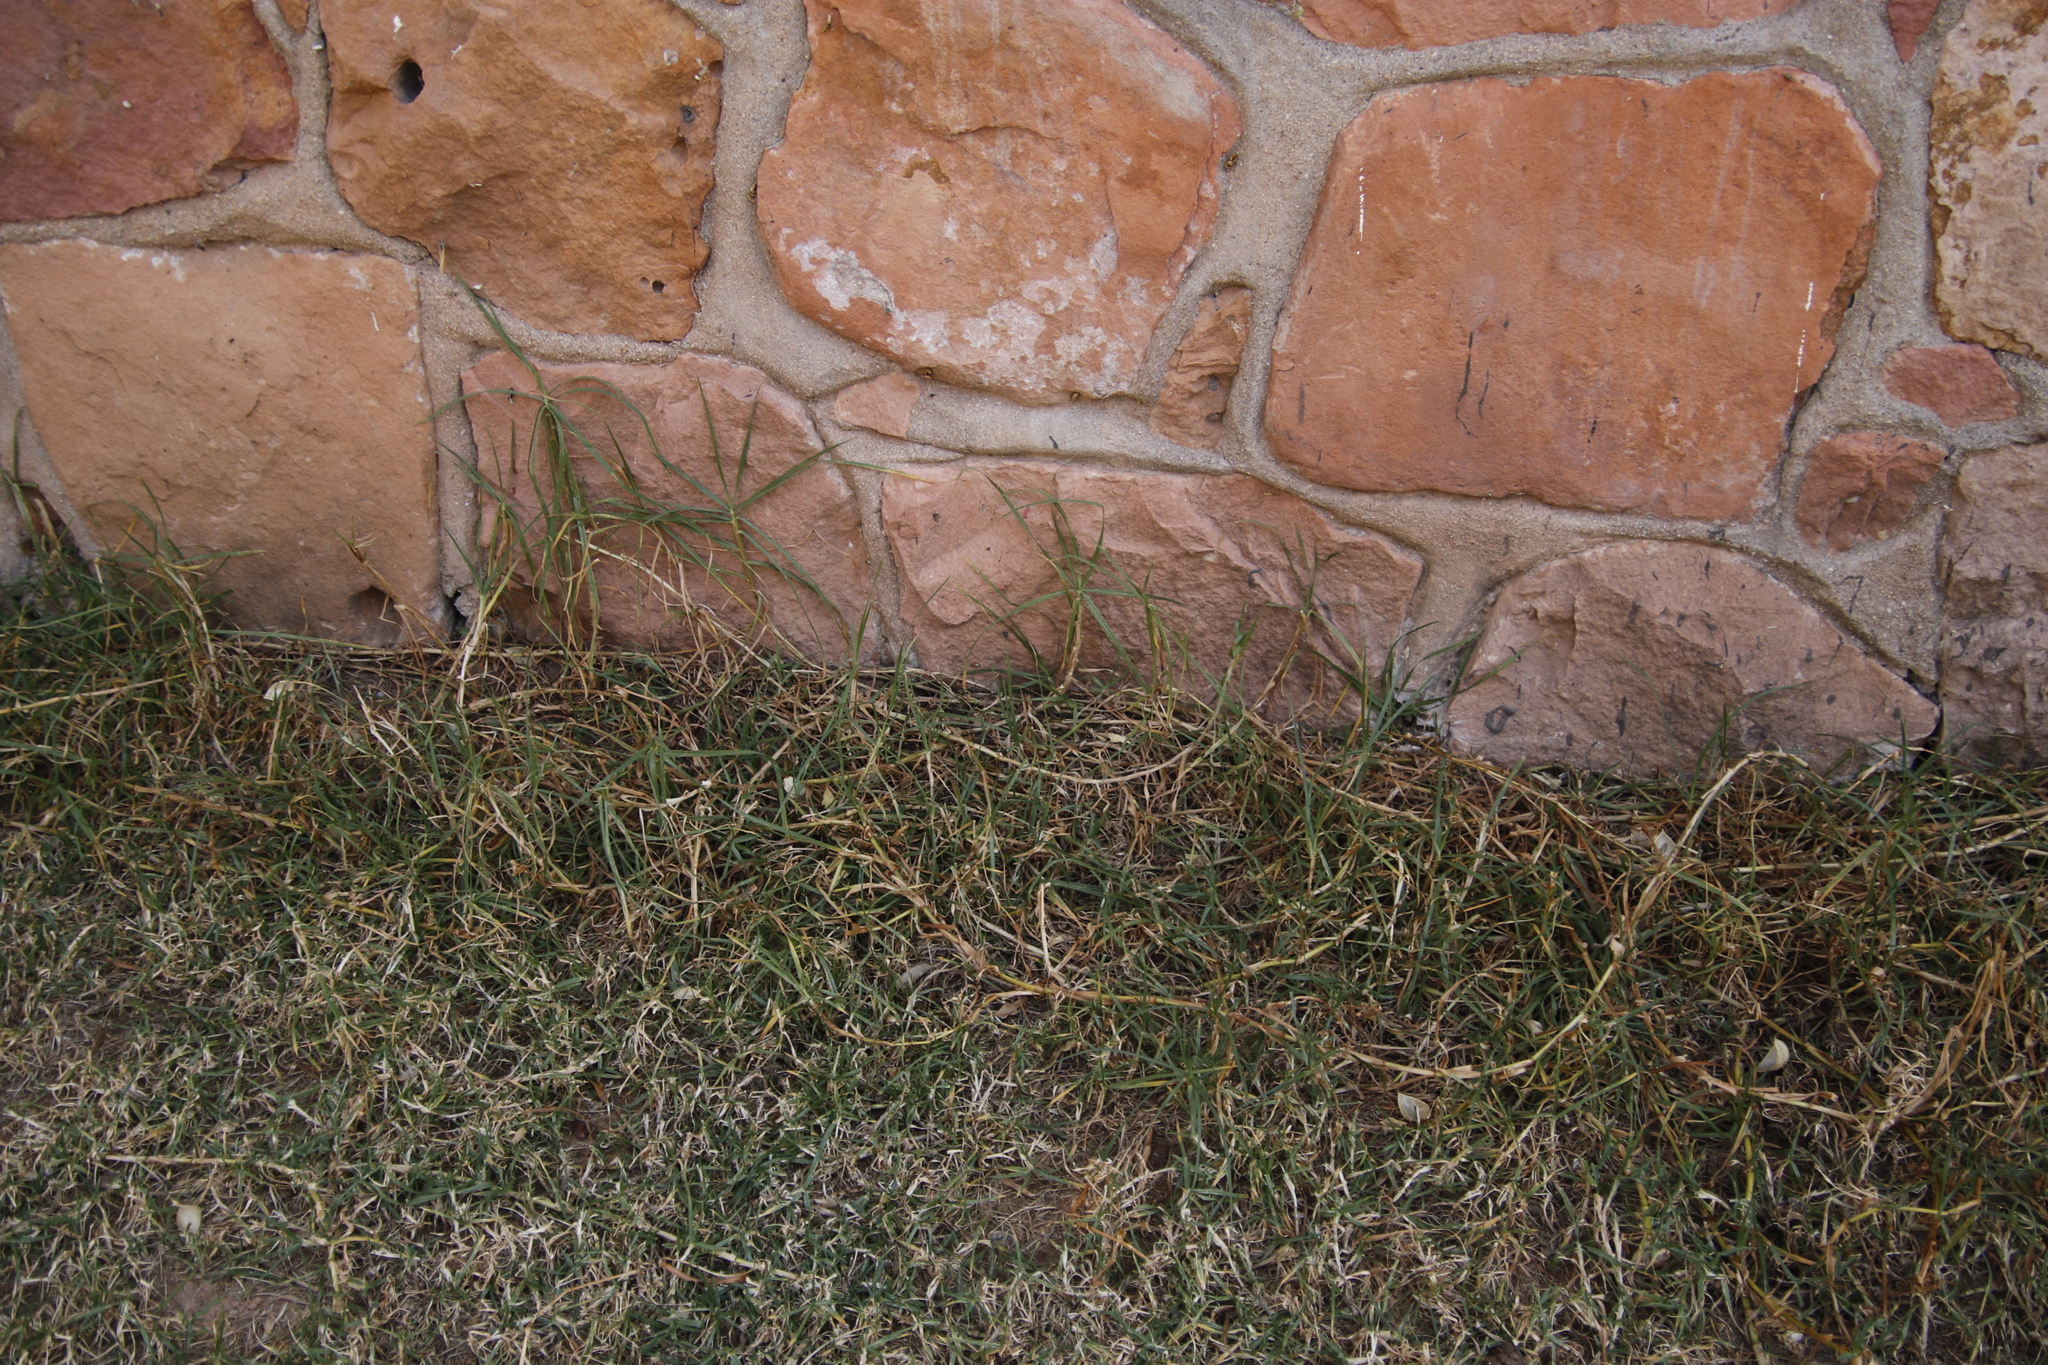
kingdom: Plantae
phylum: Tracheophyta
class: Liliopsida
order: Poales
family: Poaceae
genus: Cenchrus
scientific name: Cenchrus clandestinus
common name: Kikuyugrass
